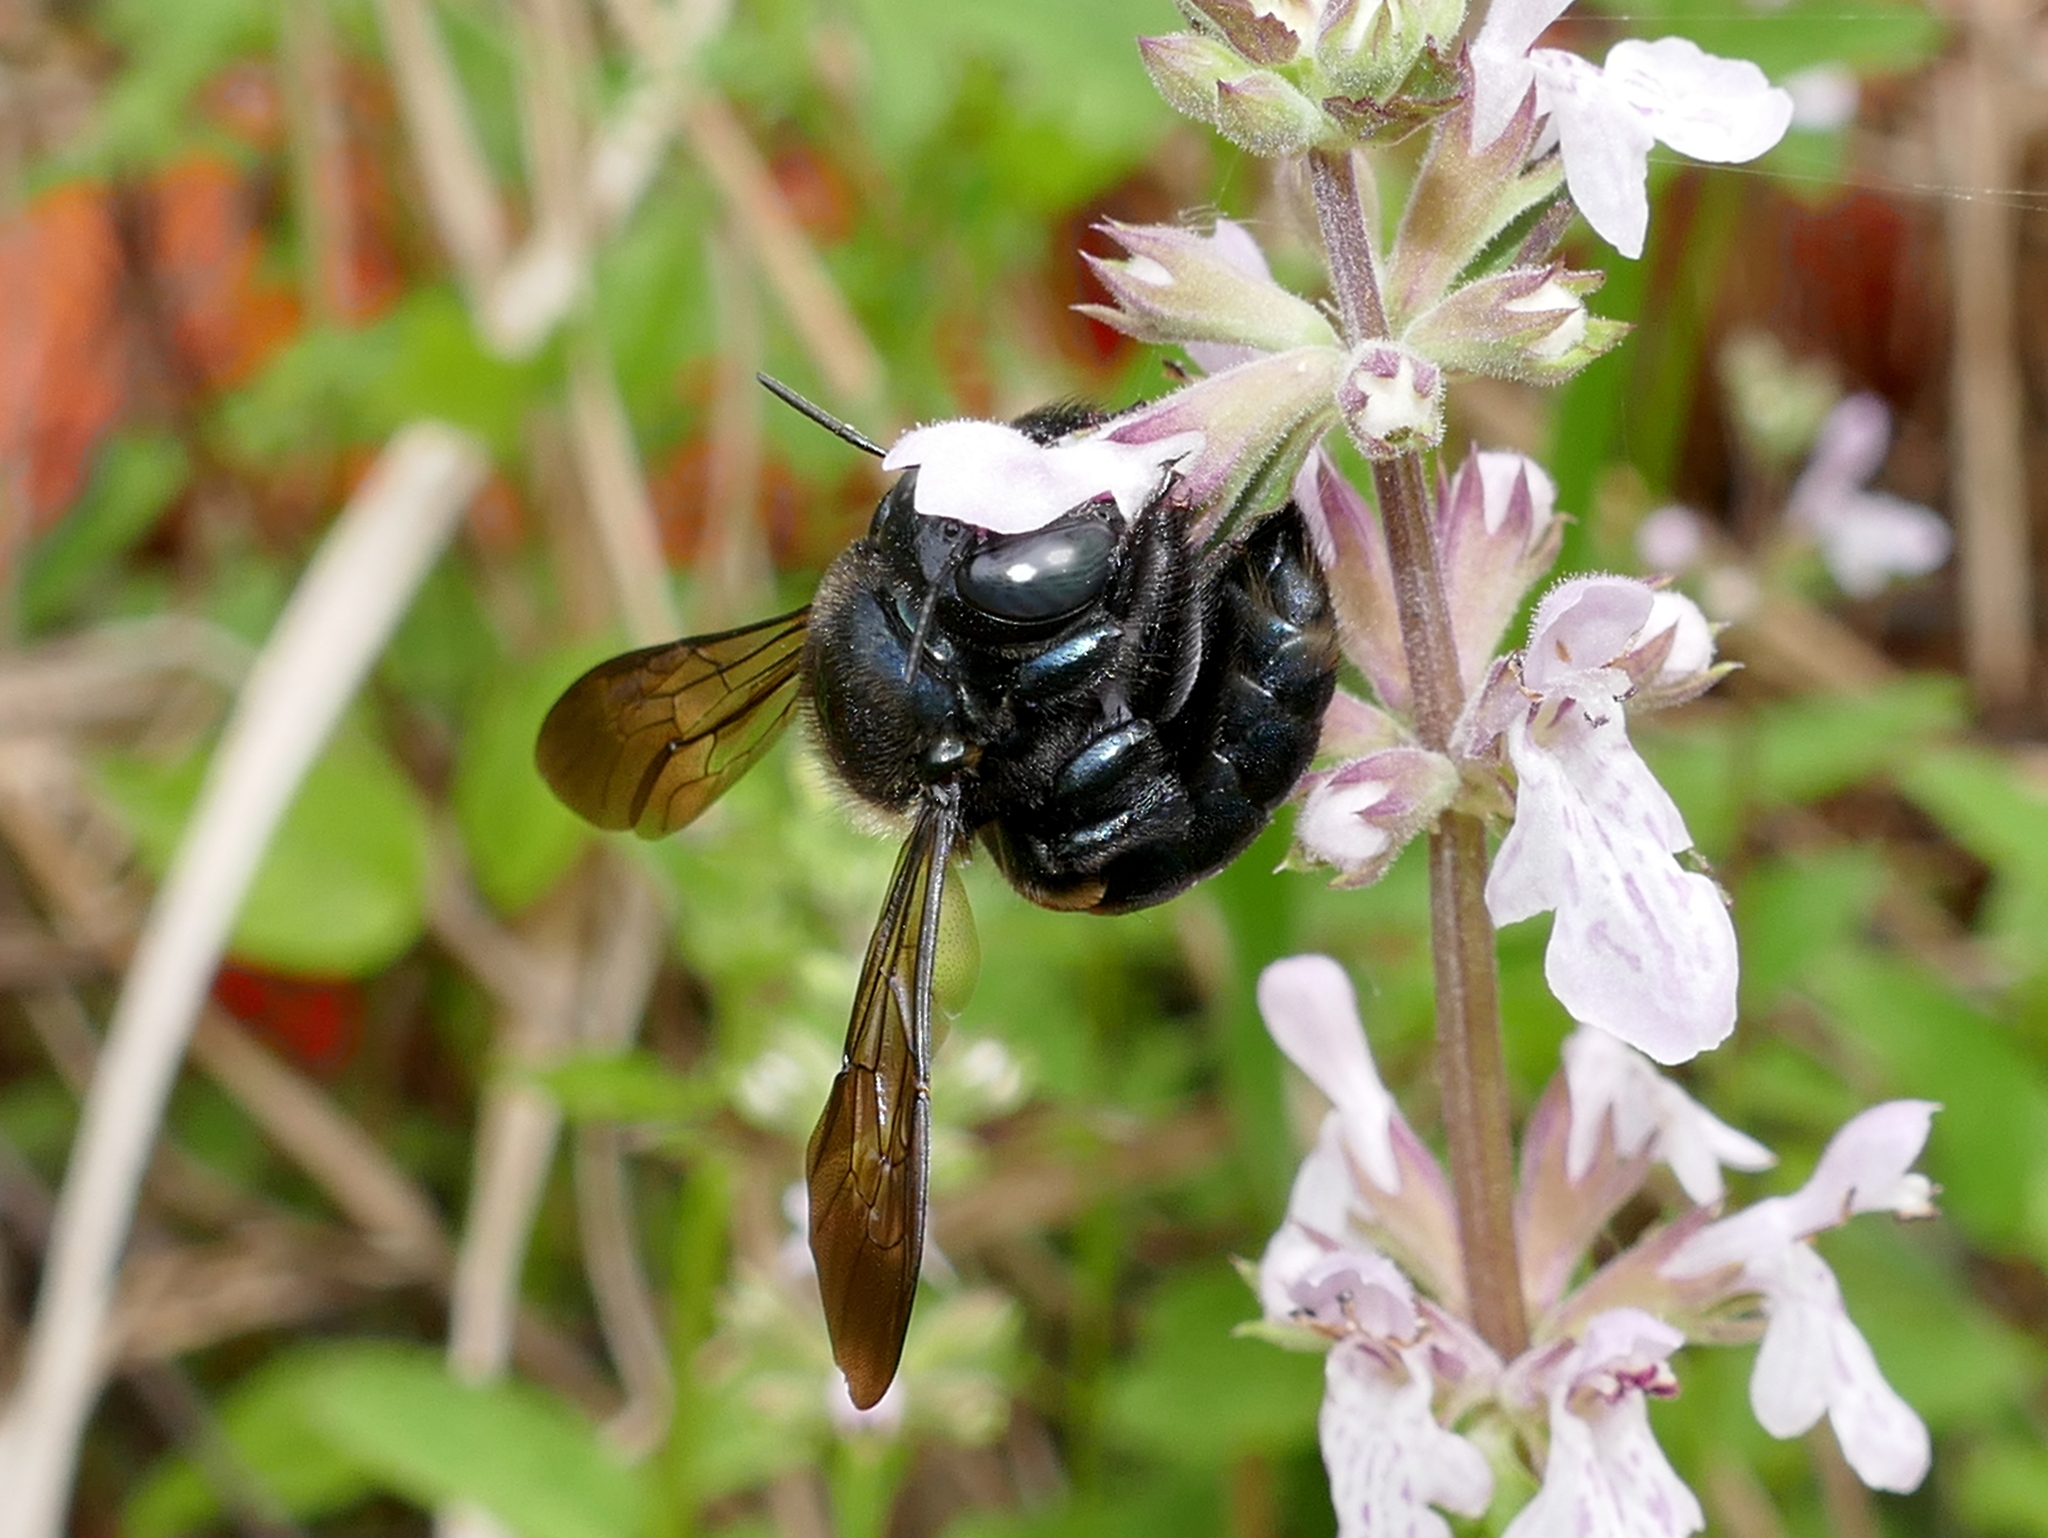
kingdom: Animalia
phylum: Arthropoda
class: Insecta
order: Hymenoptera
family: Apidae
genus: Xylocopa
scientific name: Xylocopa micans
